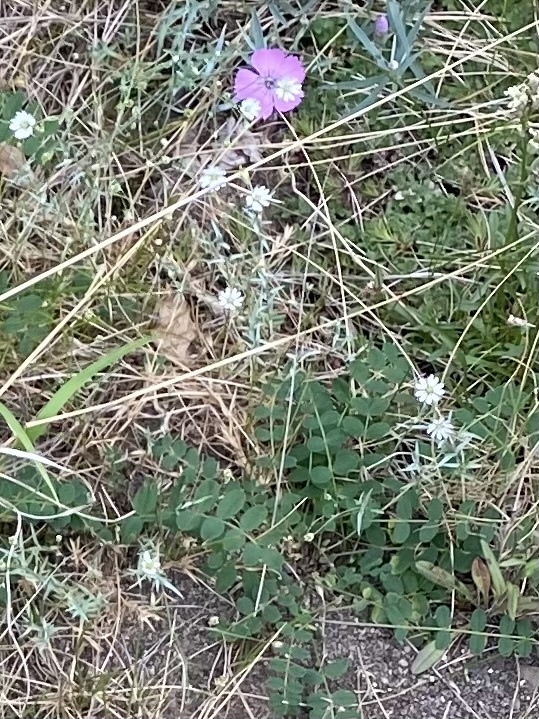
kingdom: Plantae
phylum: Tracheophyta
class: Magnoliopsida
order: Caryophyllales
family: Caryophyllaceae
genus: Stellaria
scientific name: Stellaria fischeriana
